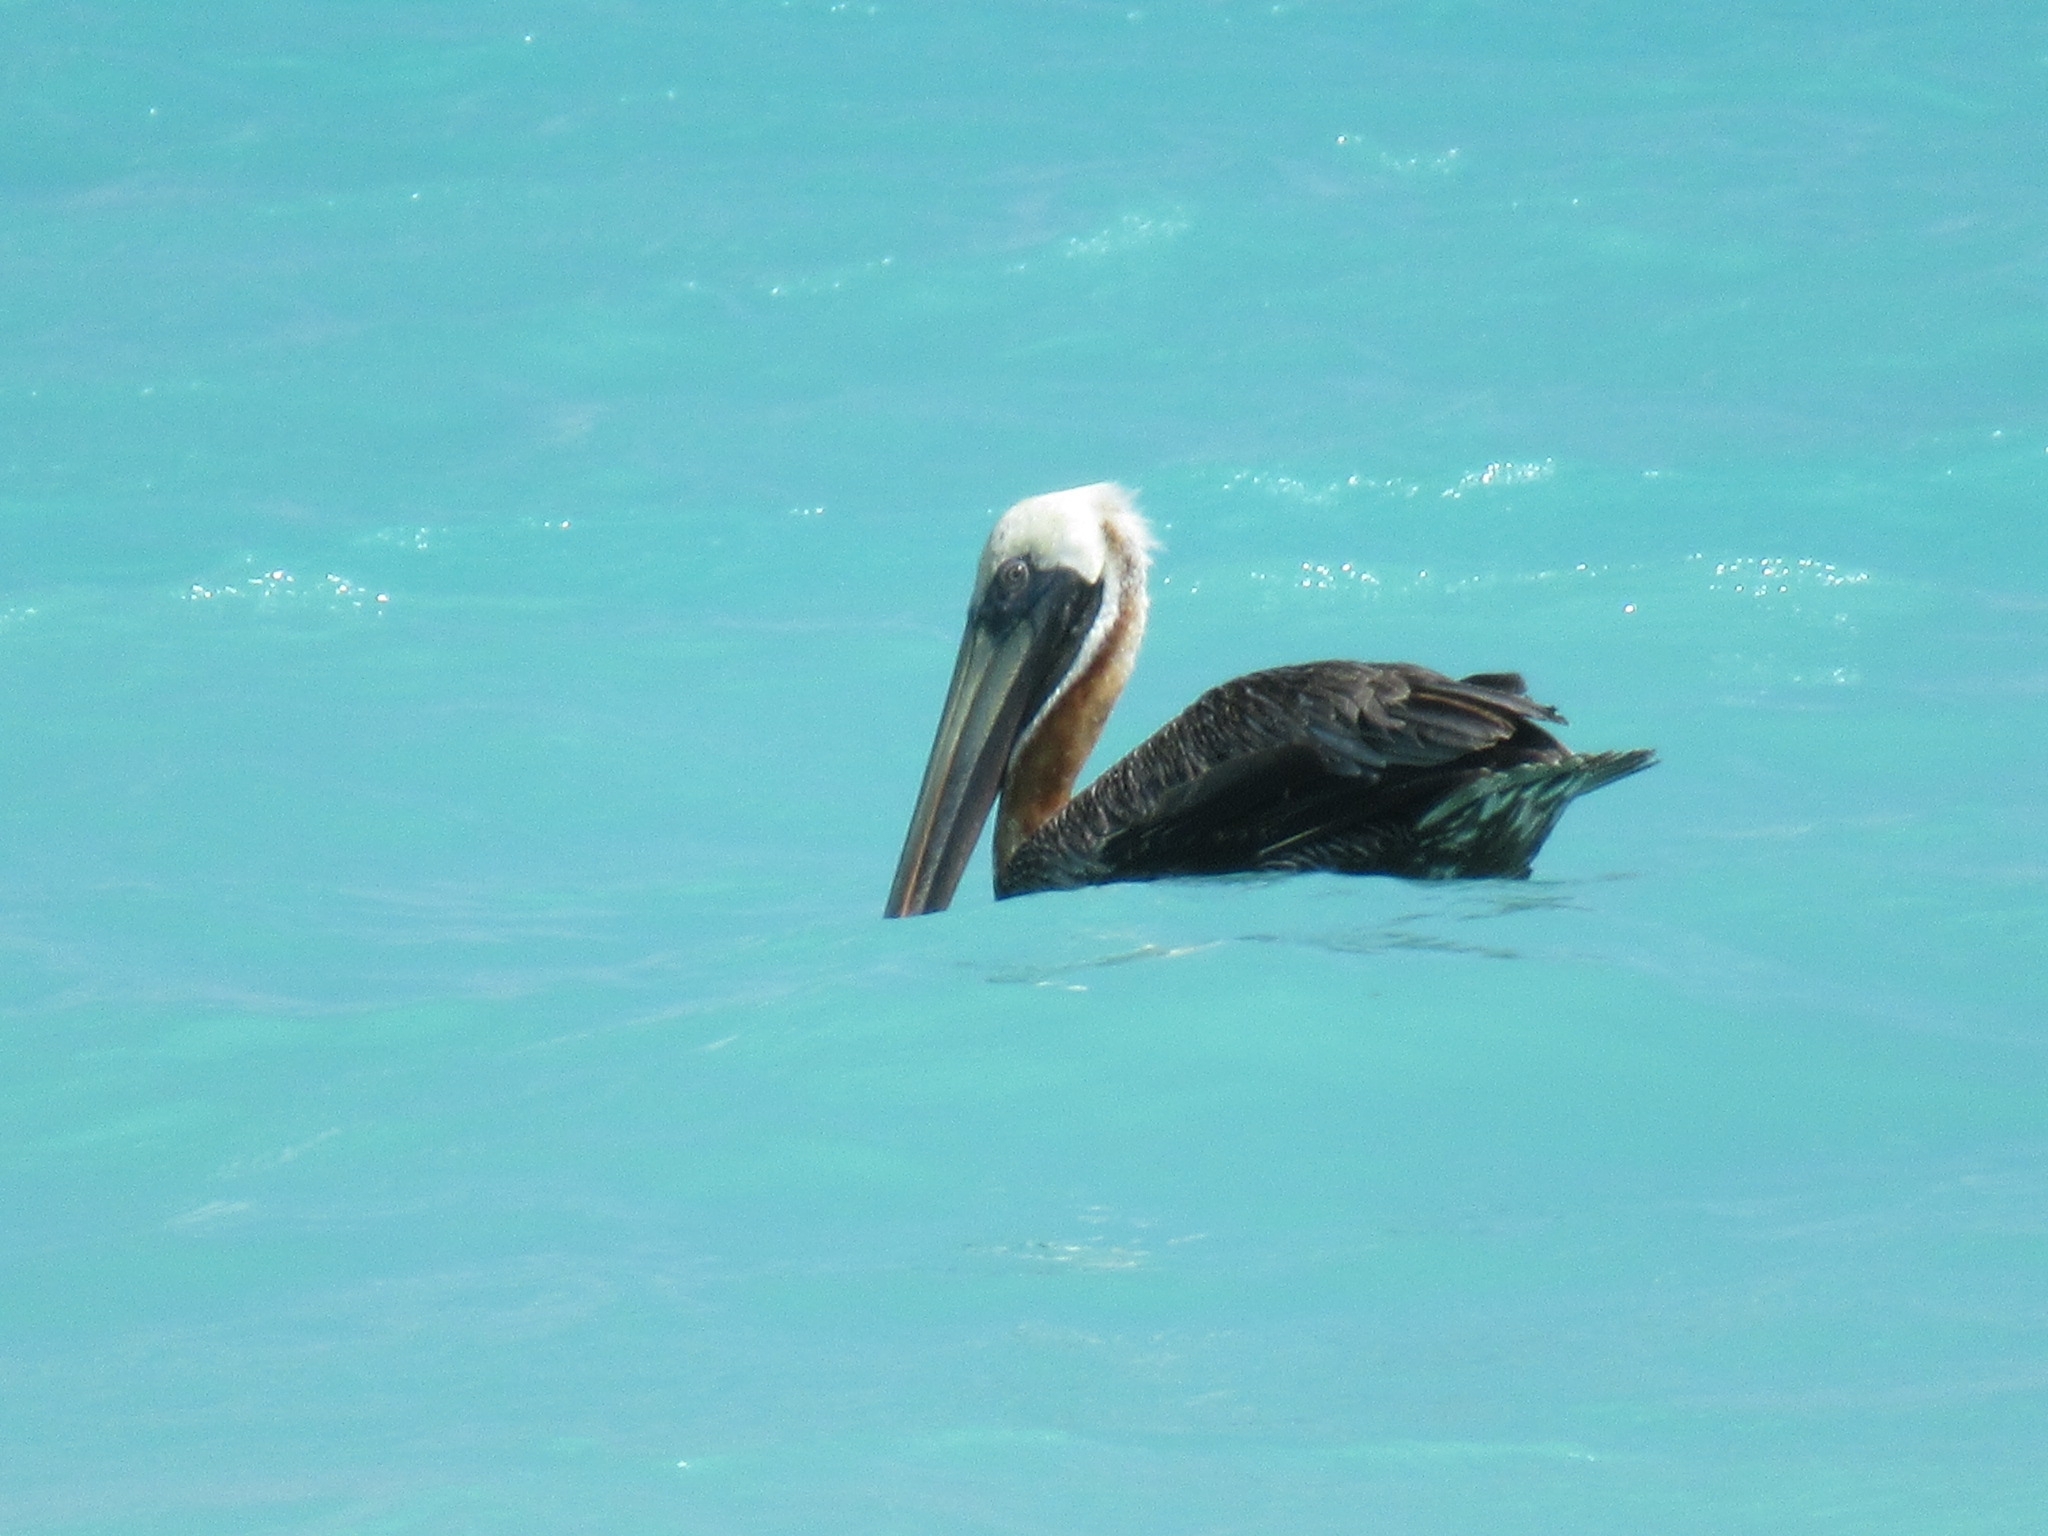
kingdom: Animalia
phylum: Chordata
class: Aves
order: Pelecaniformes
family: Pelecanidae
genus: Pelecanus
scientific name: Pelecanus occidentalis
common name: Brown pelican
